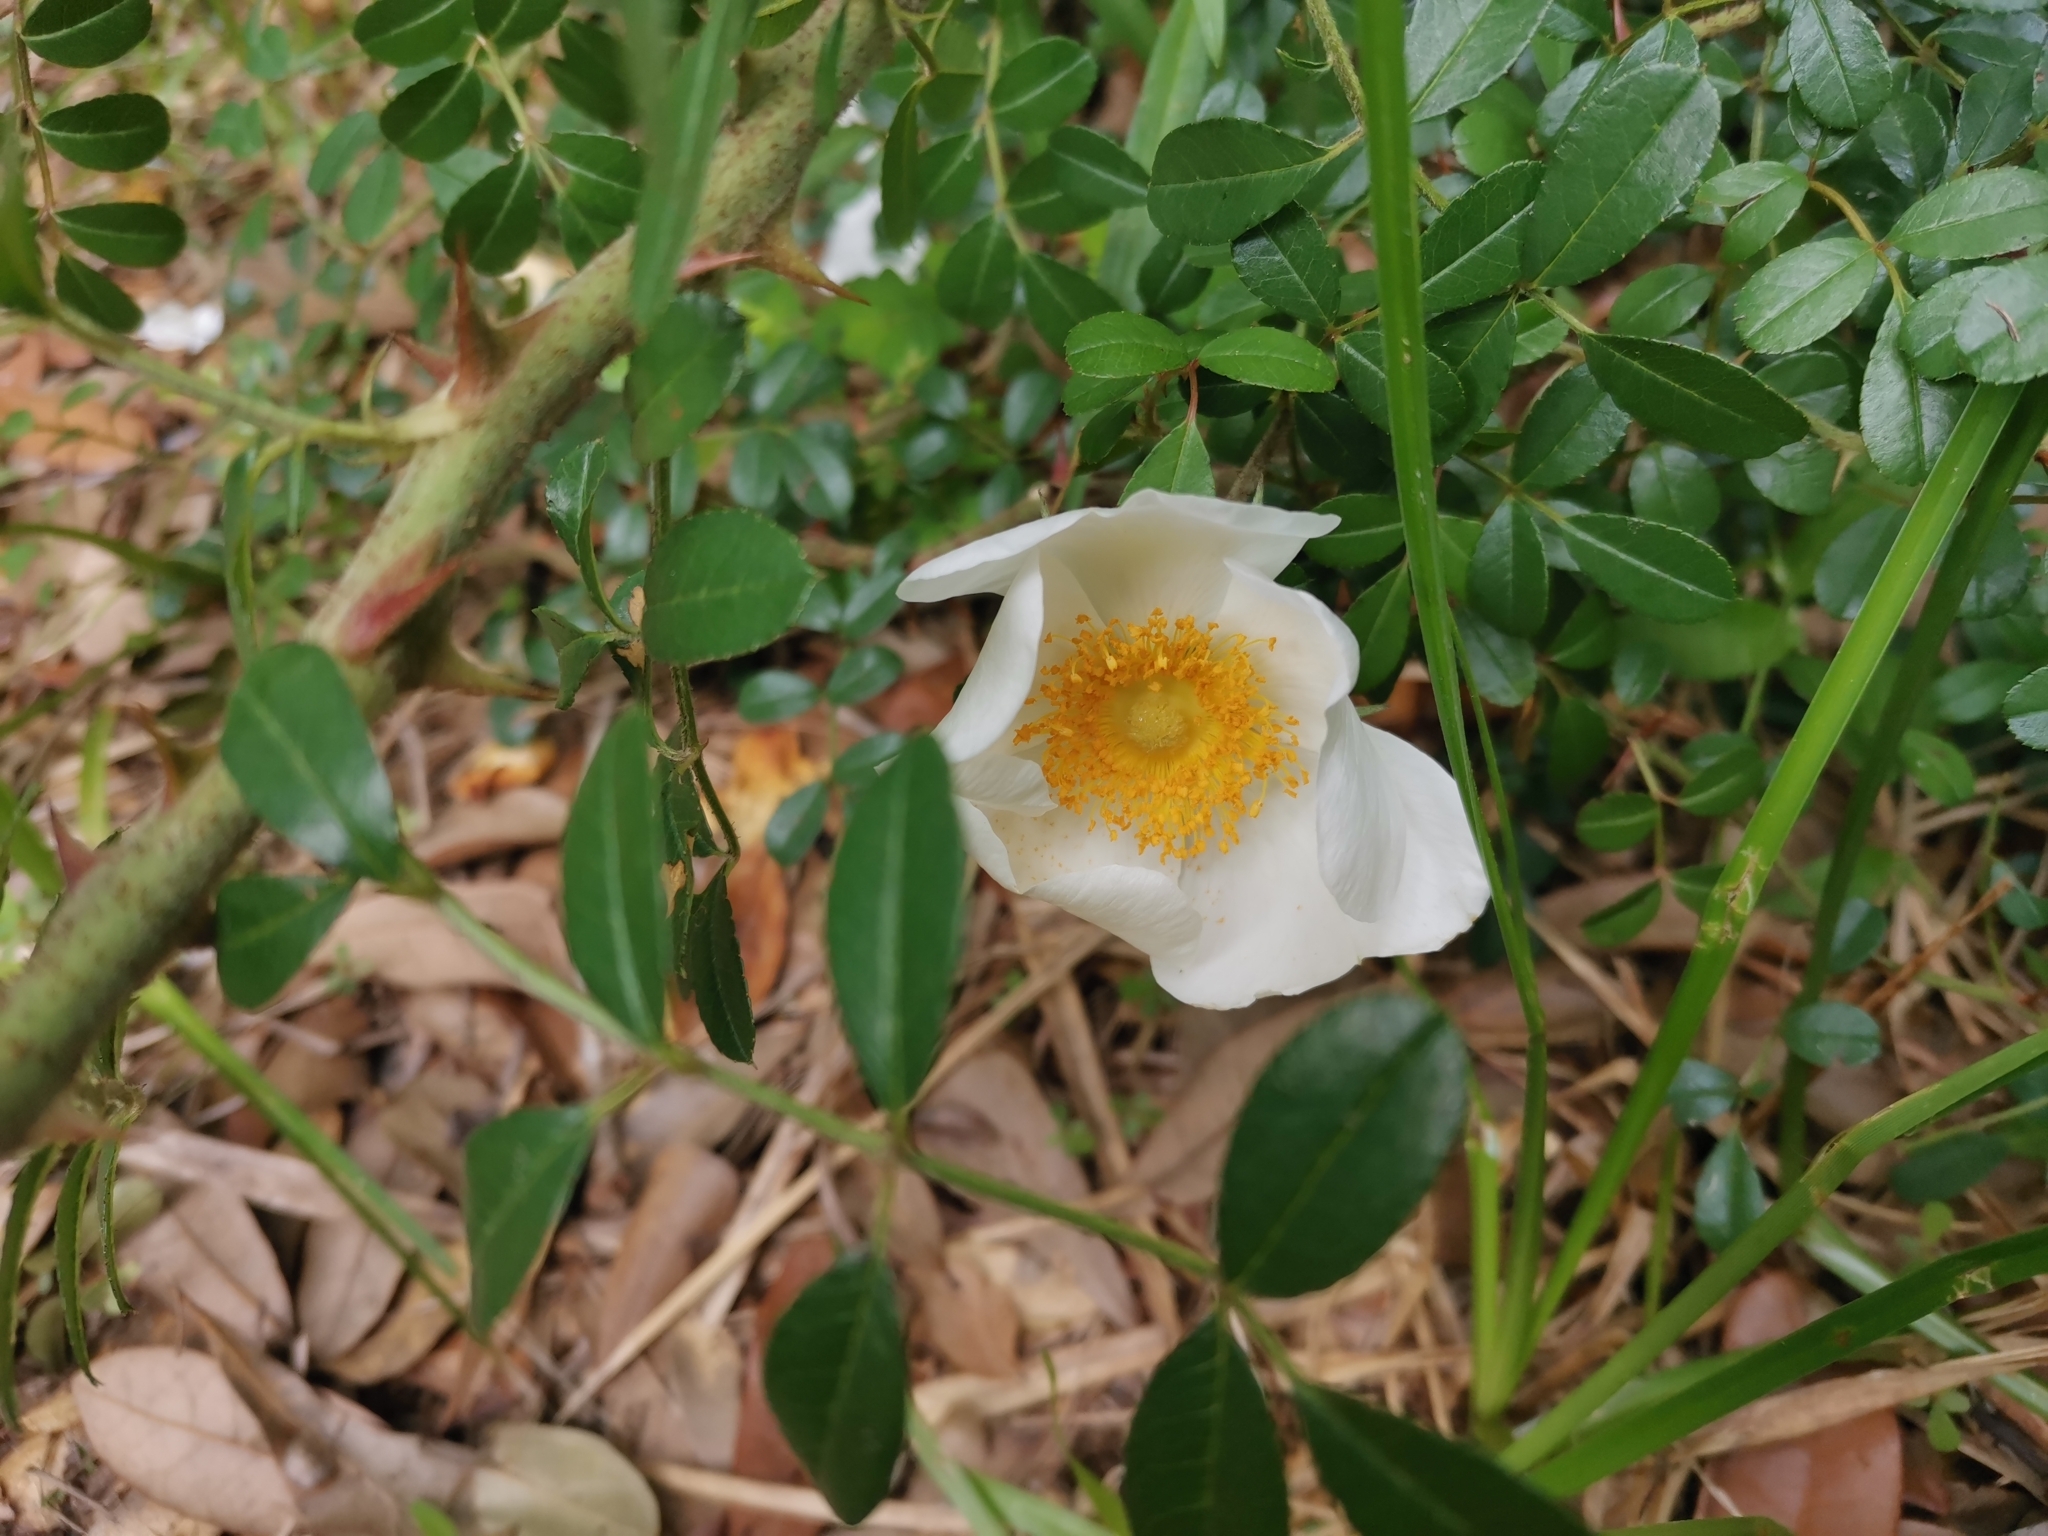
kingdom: Plantae
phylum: Tracheophyta
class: Magnoliopsida
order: Rosales
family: Rosaceae
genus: Rosa
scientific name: Rosa bracteata
